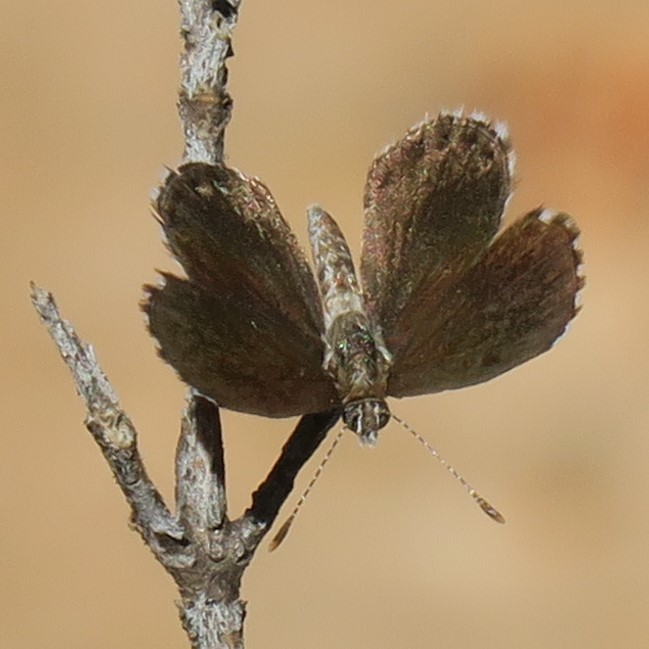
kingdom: Animalia
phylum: Arthropoda
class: Insecta
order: Lepidoptera
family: Lycaenidae
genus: Oraidium
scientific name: Oraidium barberae
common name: Dwarf blue
